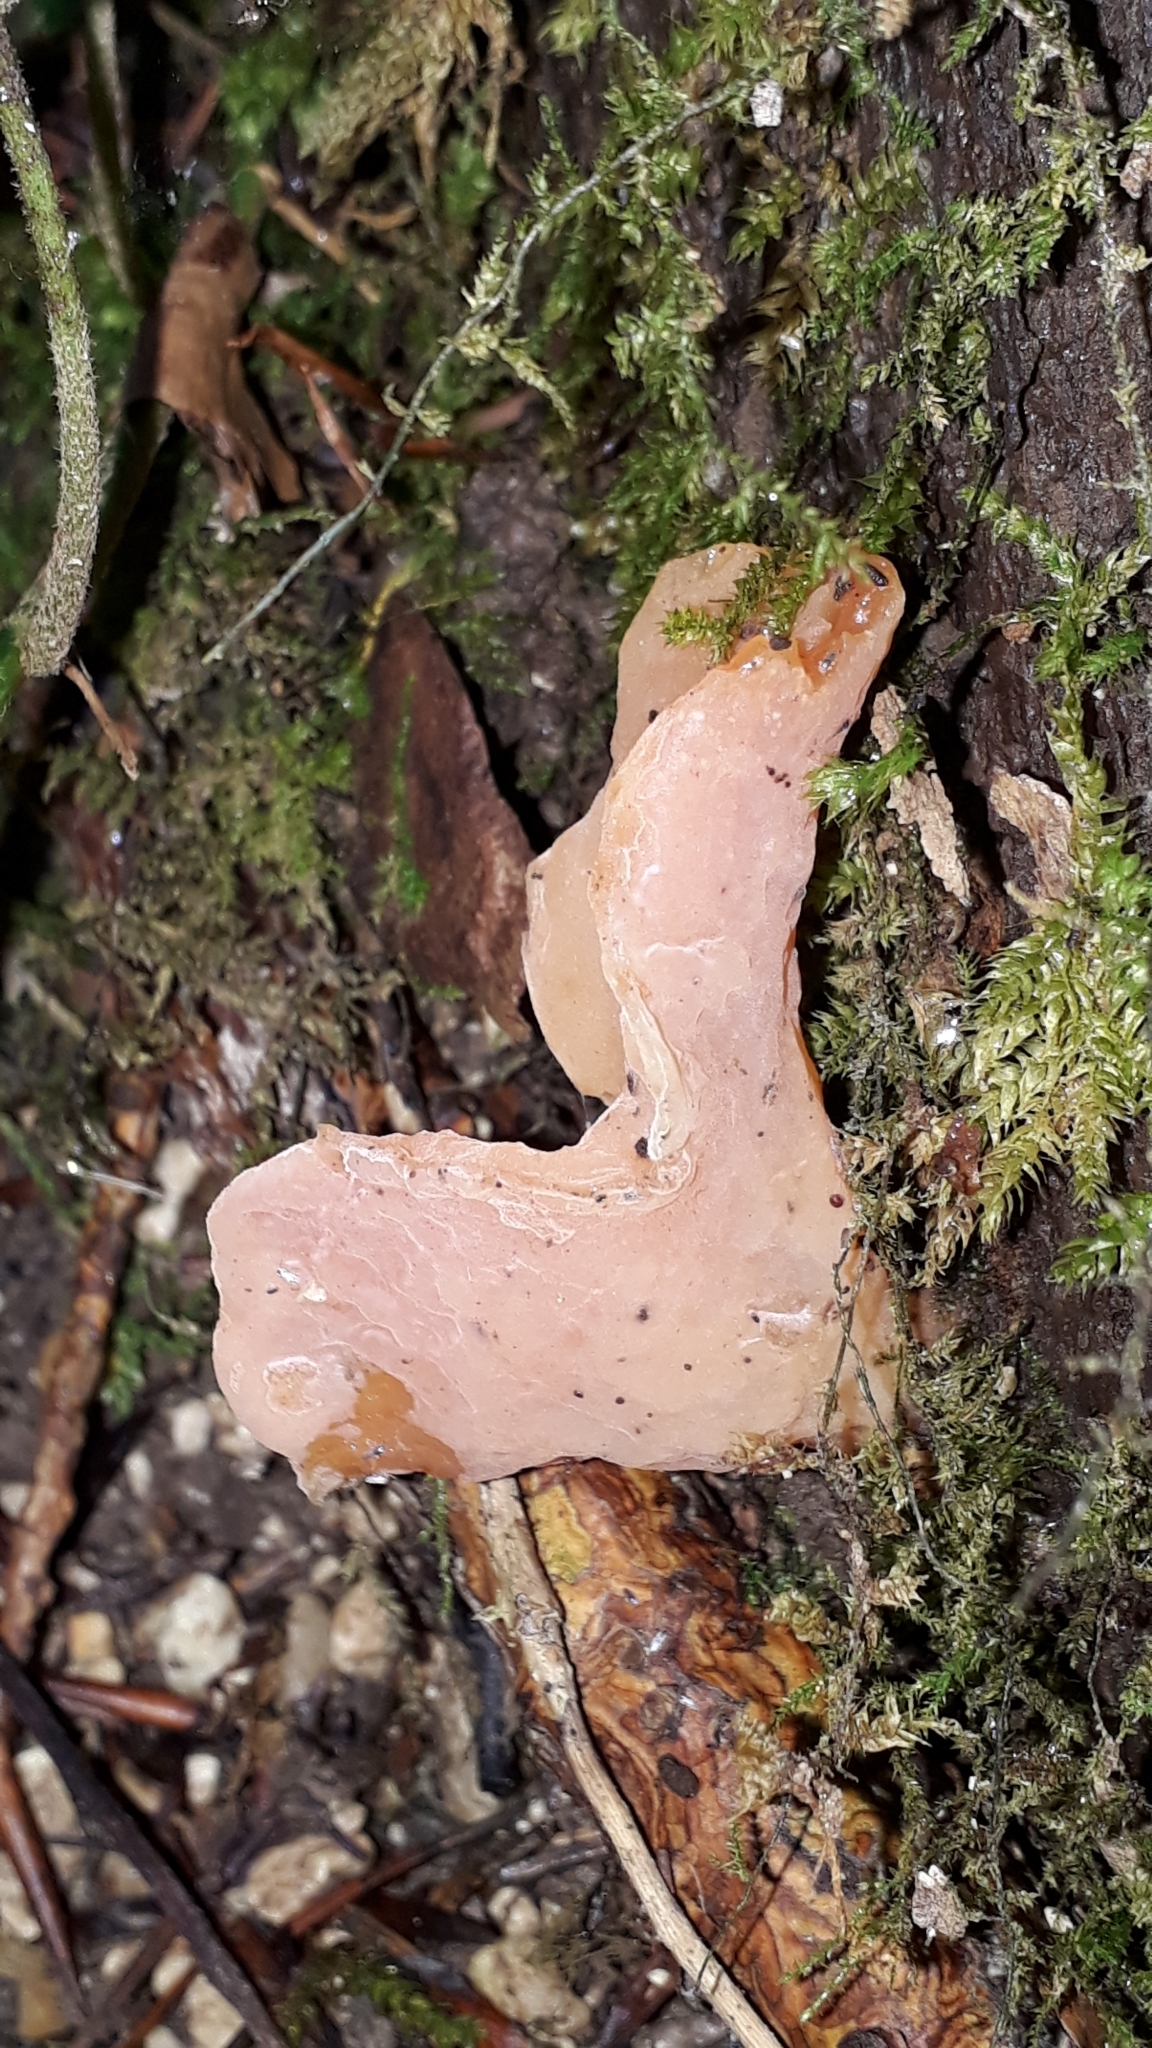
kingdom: Fungi
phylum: Basidiomycota
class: Agaricomycetes
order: Auriculariales
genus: Guepinia
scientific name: Guepinia helvelloides
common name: Salmon salad
